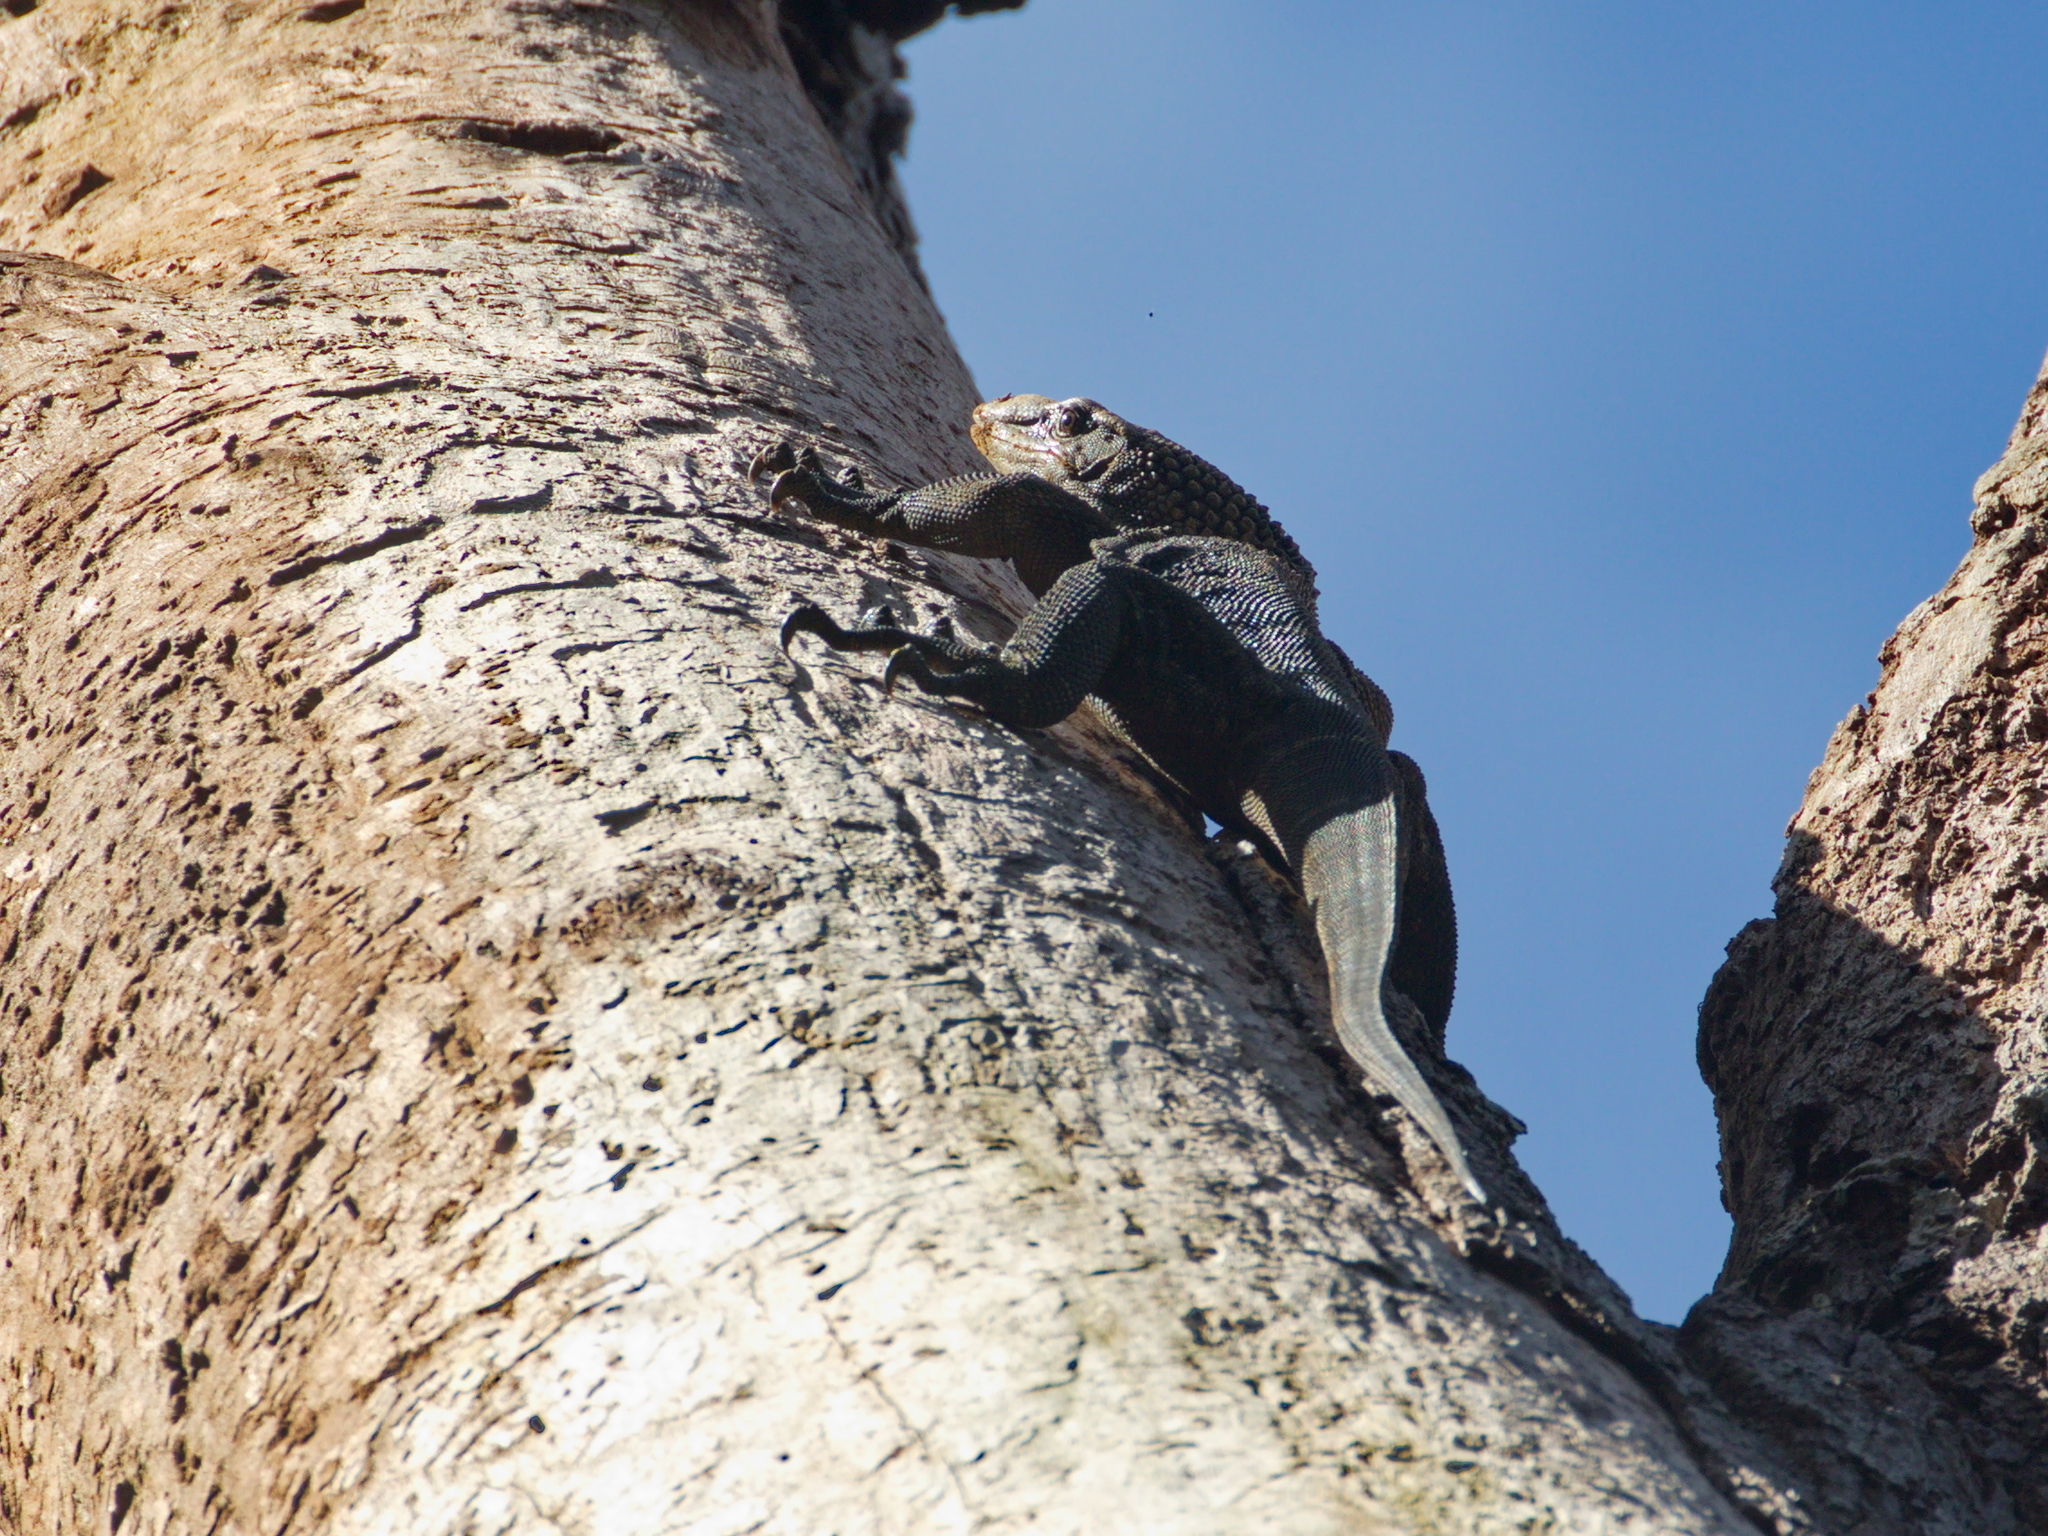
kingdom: Animalia
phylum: Chordata
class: Squamata
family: Varanidae
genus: Varanus
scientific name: Varanus rudicollis
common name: Roughneck monitor
